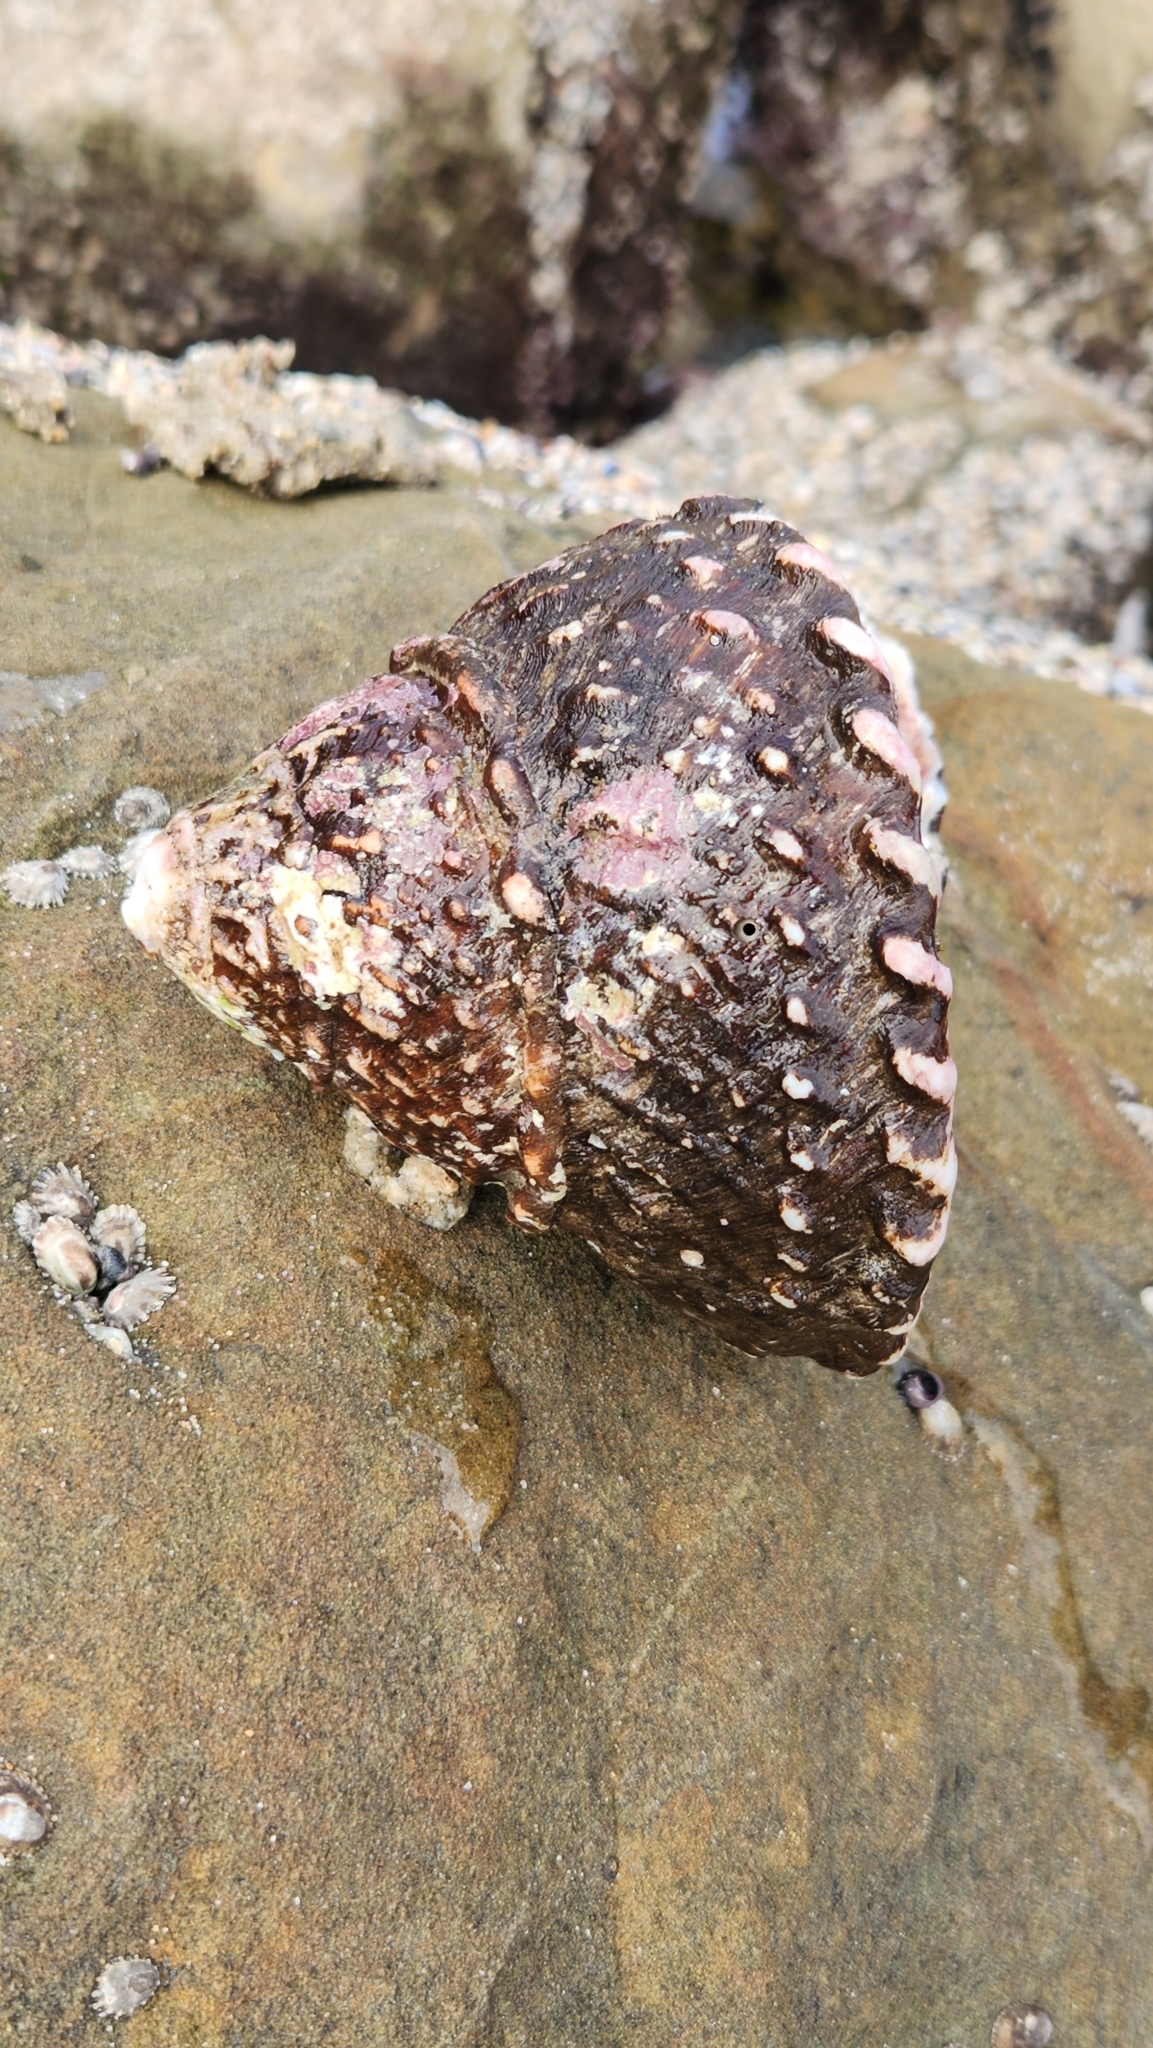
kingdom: Animalia
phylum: Mollusca
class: Gastropoda
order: Trochida
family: Turbinidae
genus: Megastraea
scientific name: Megastraea undosa
